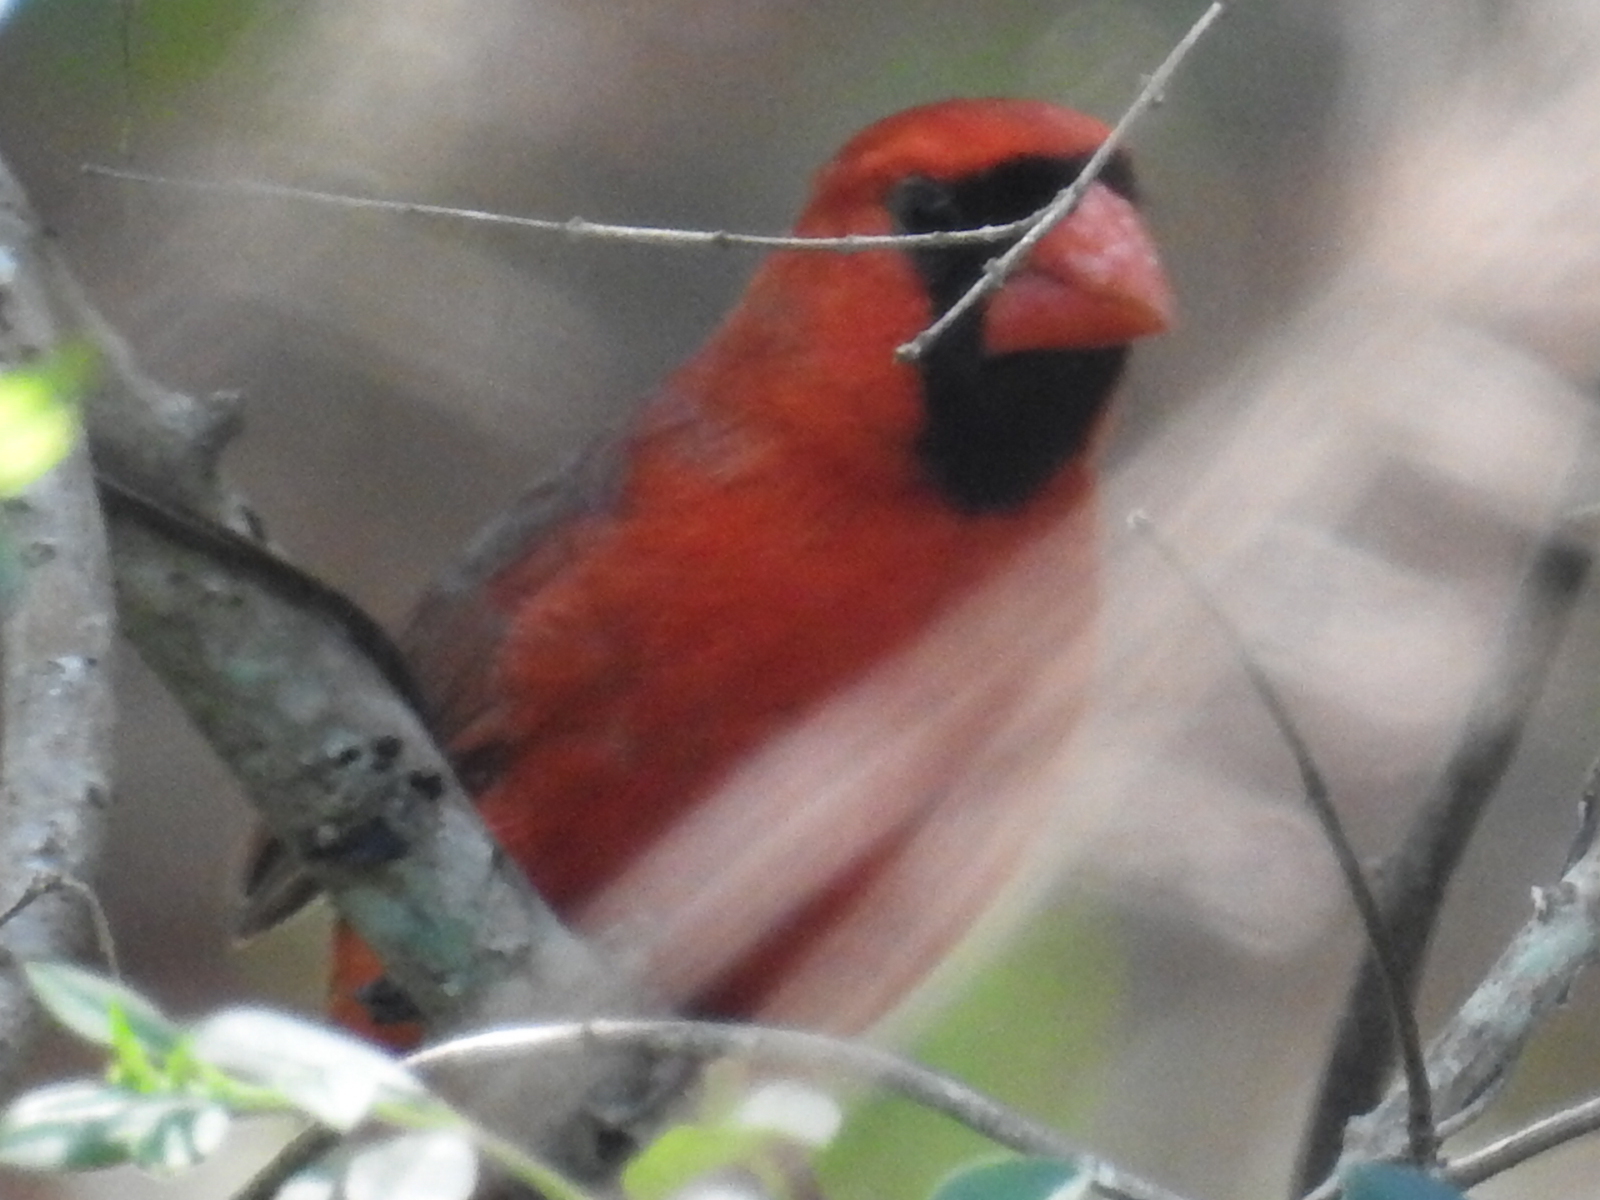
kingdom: Animalia
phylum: Chordata
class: Aves
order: Passeriformes
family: Cardinalidae
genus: Cardinalis
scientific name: Cardinalis cardinalis
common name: Northern cardinal
